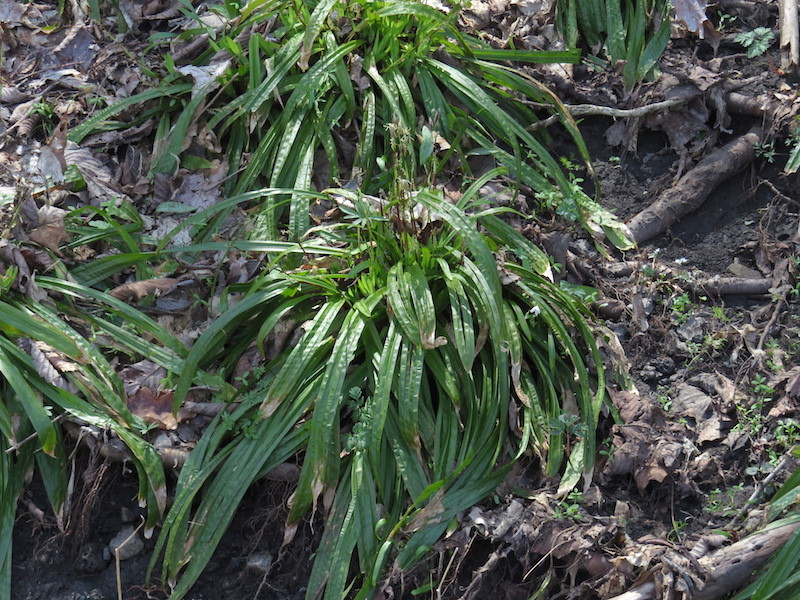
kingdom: Plantae
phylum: Tracheophyta
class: Liliopsida
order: Poales
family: Cyperaceae
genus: Carex
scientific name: Carex plantaginea
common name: Plantain-leaved sedge
